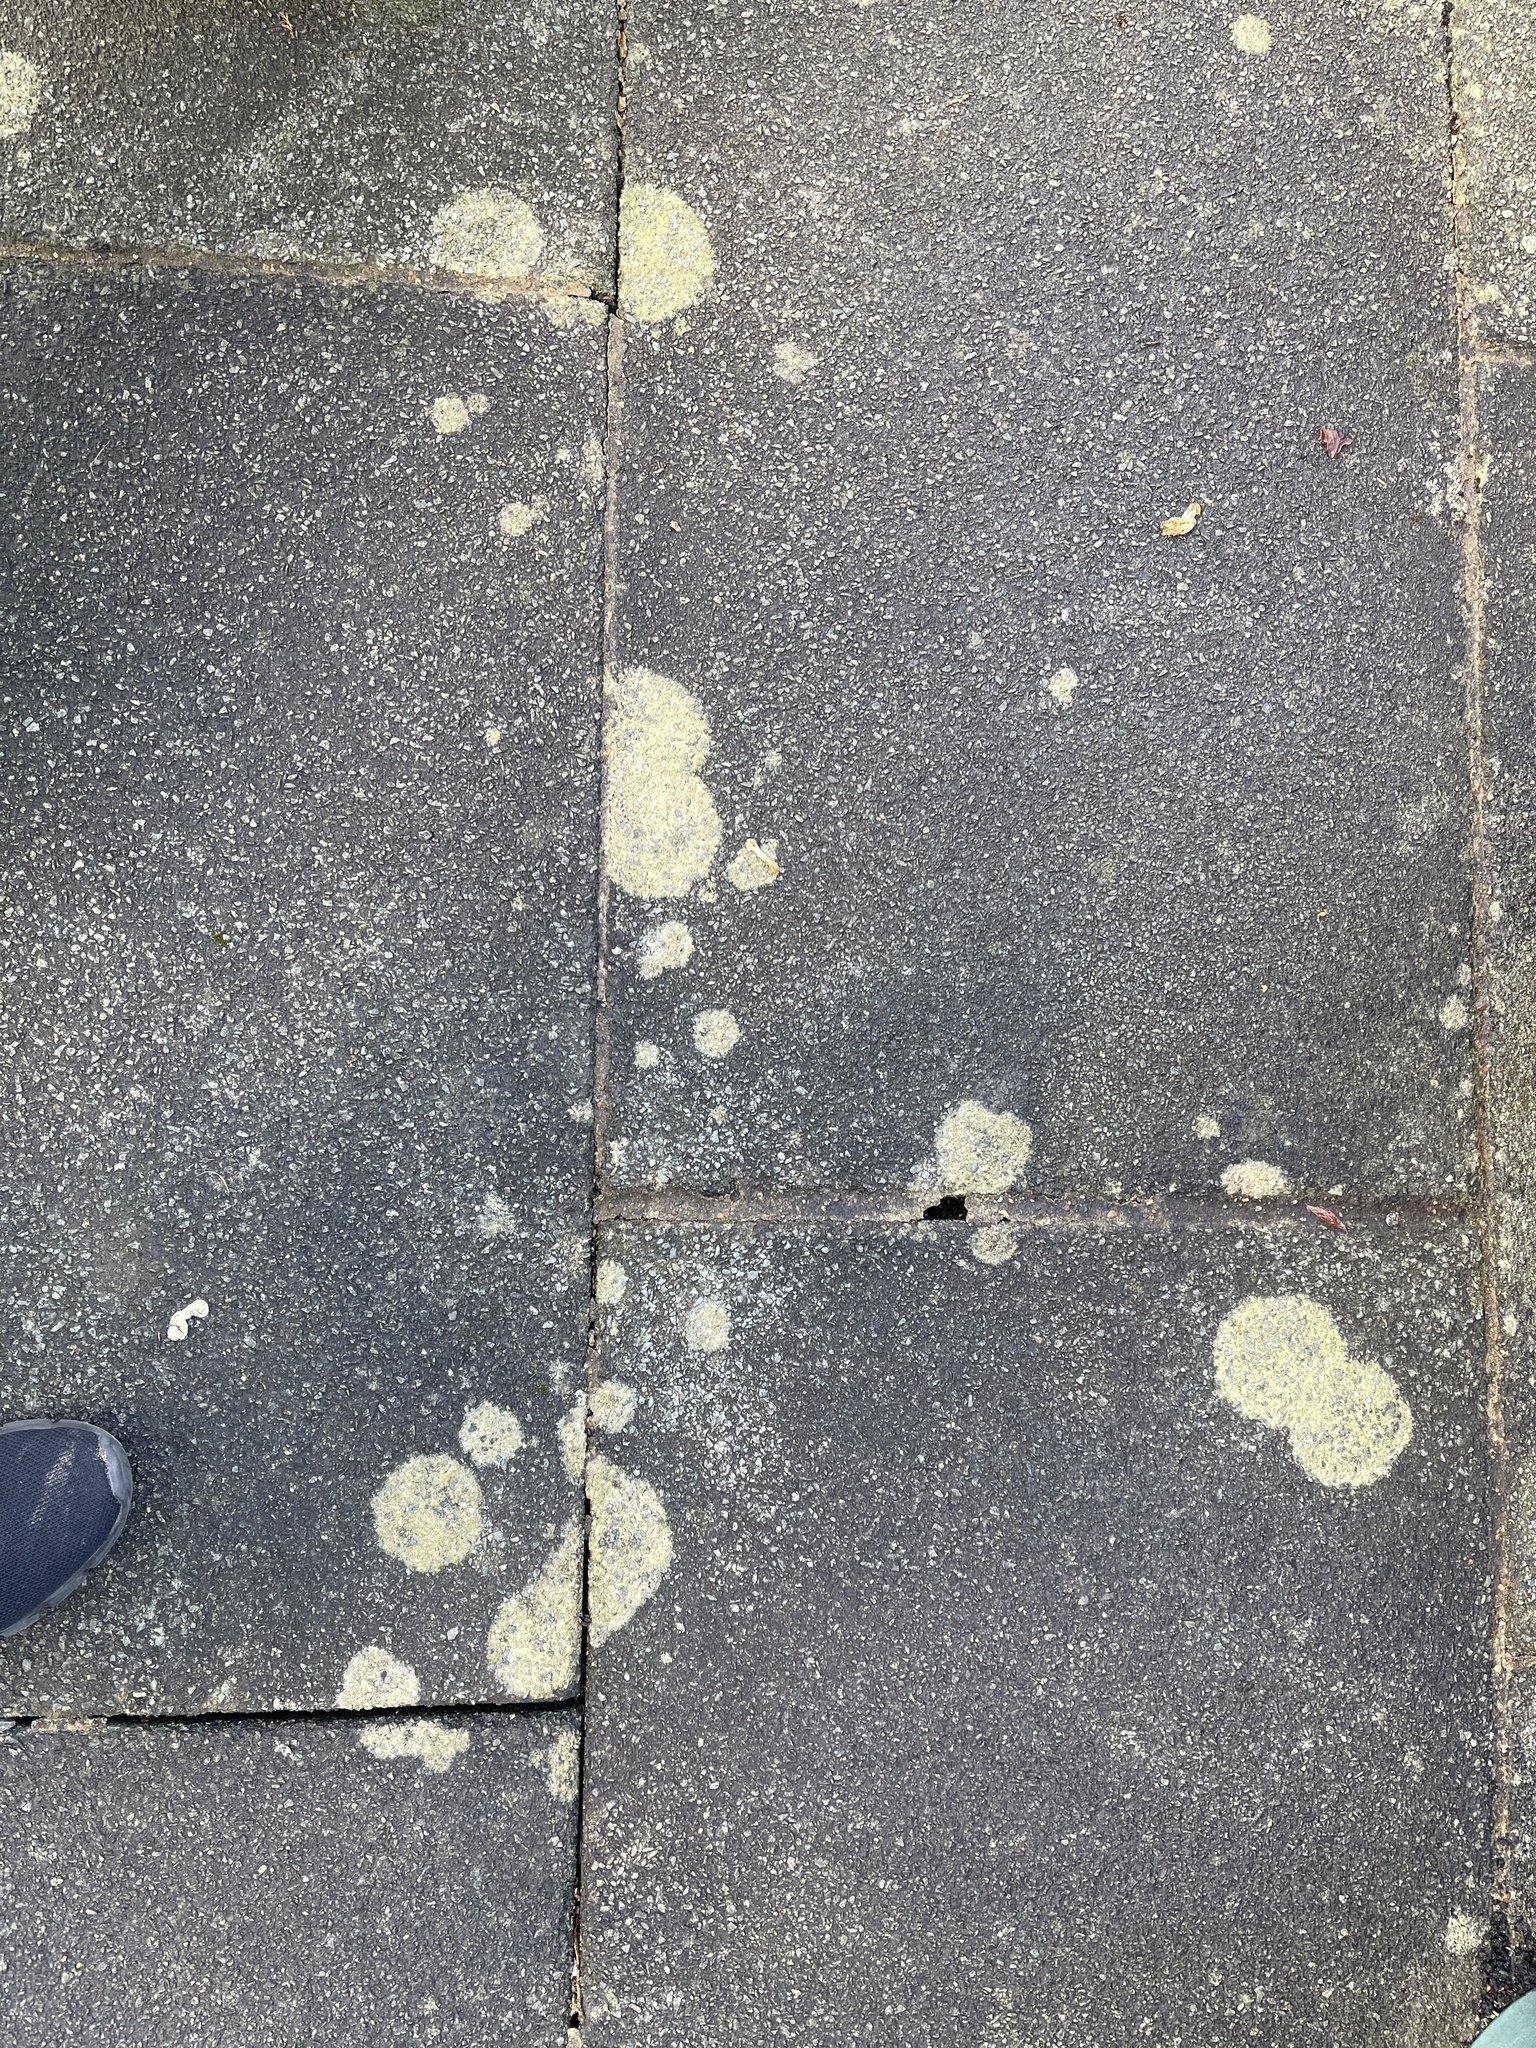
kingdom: Fungi
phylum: Ascomycota
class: Lecanoromycetes
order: Lecanorales
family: Psoraceae
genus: Protoblastenia
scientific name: Protoblastenia rupestris
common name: Chewing gum lichen
